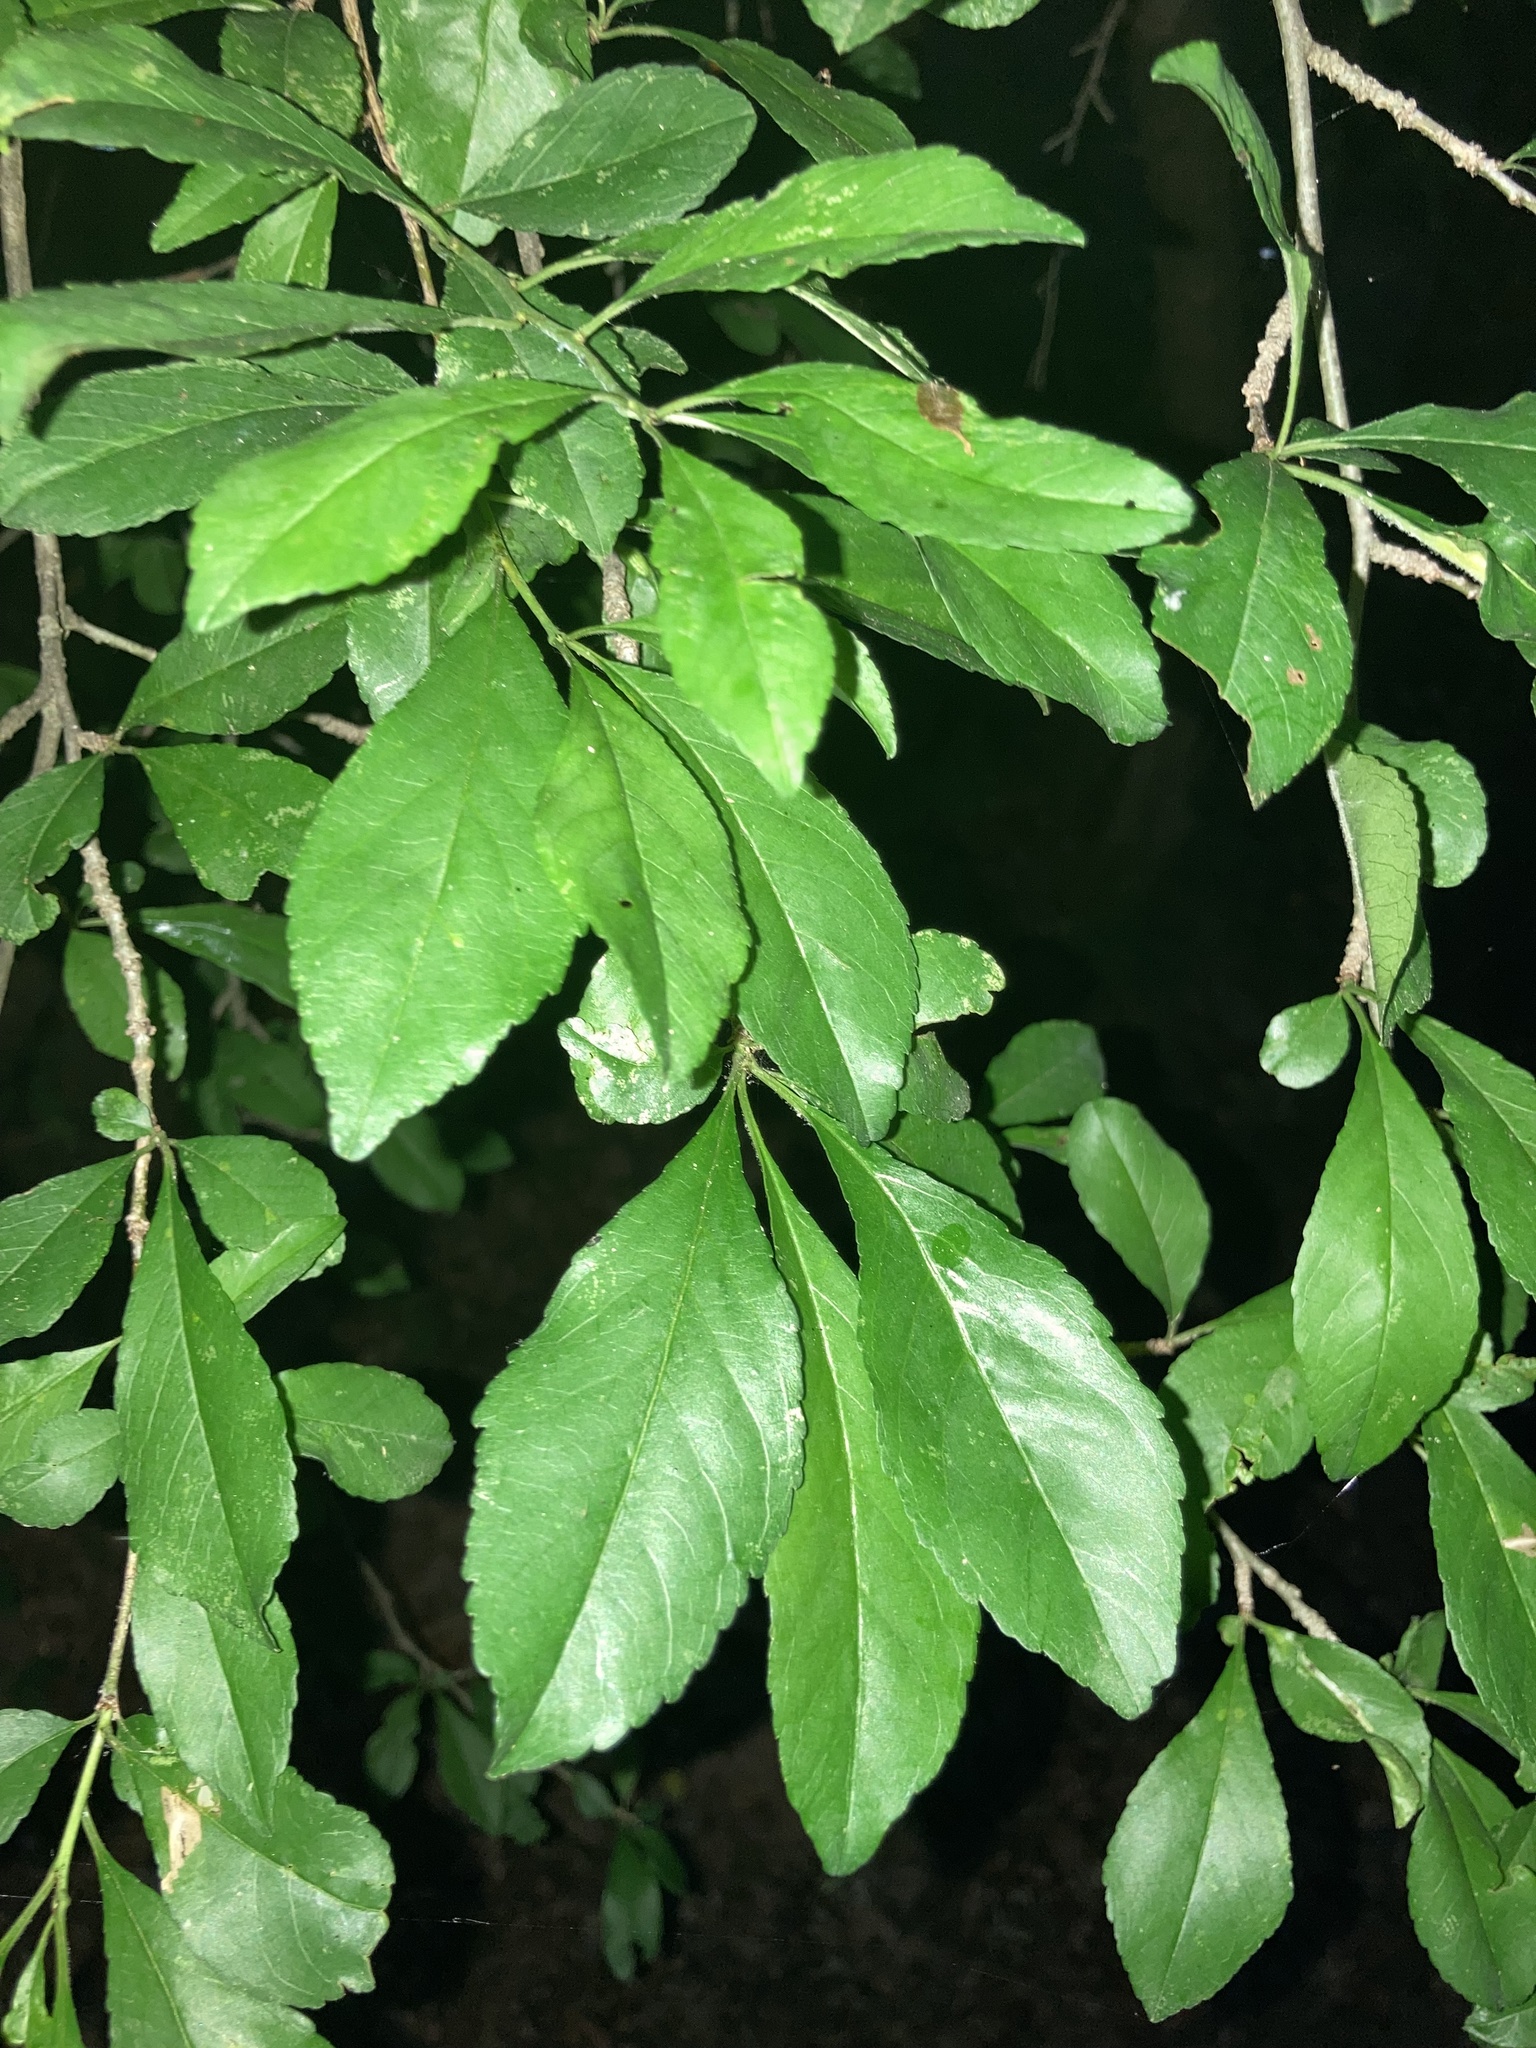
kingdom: Plantae
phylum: Tracheophyta
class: Magnoliopsida
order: Aquifoliales
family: Aquifoliaceae
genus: Ilex
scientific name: Ilex decidua
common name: Possum-haw
